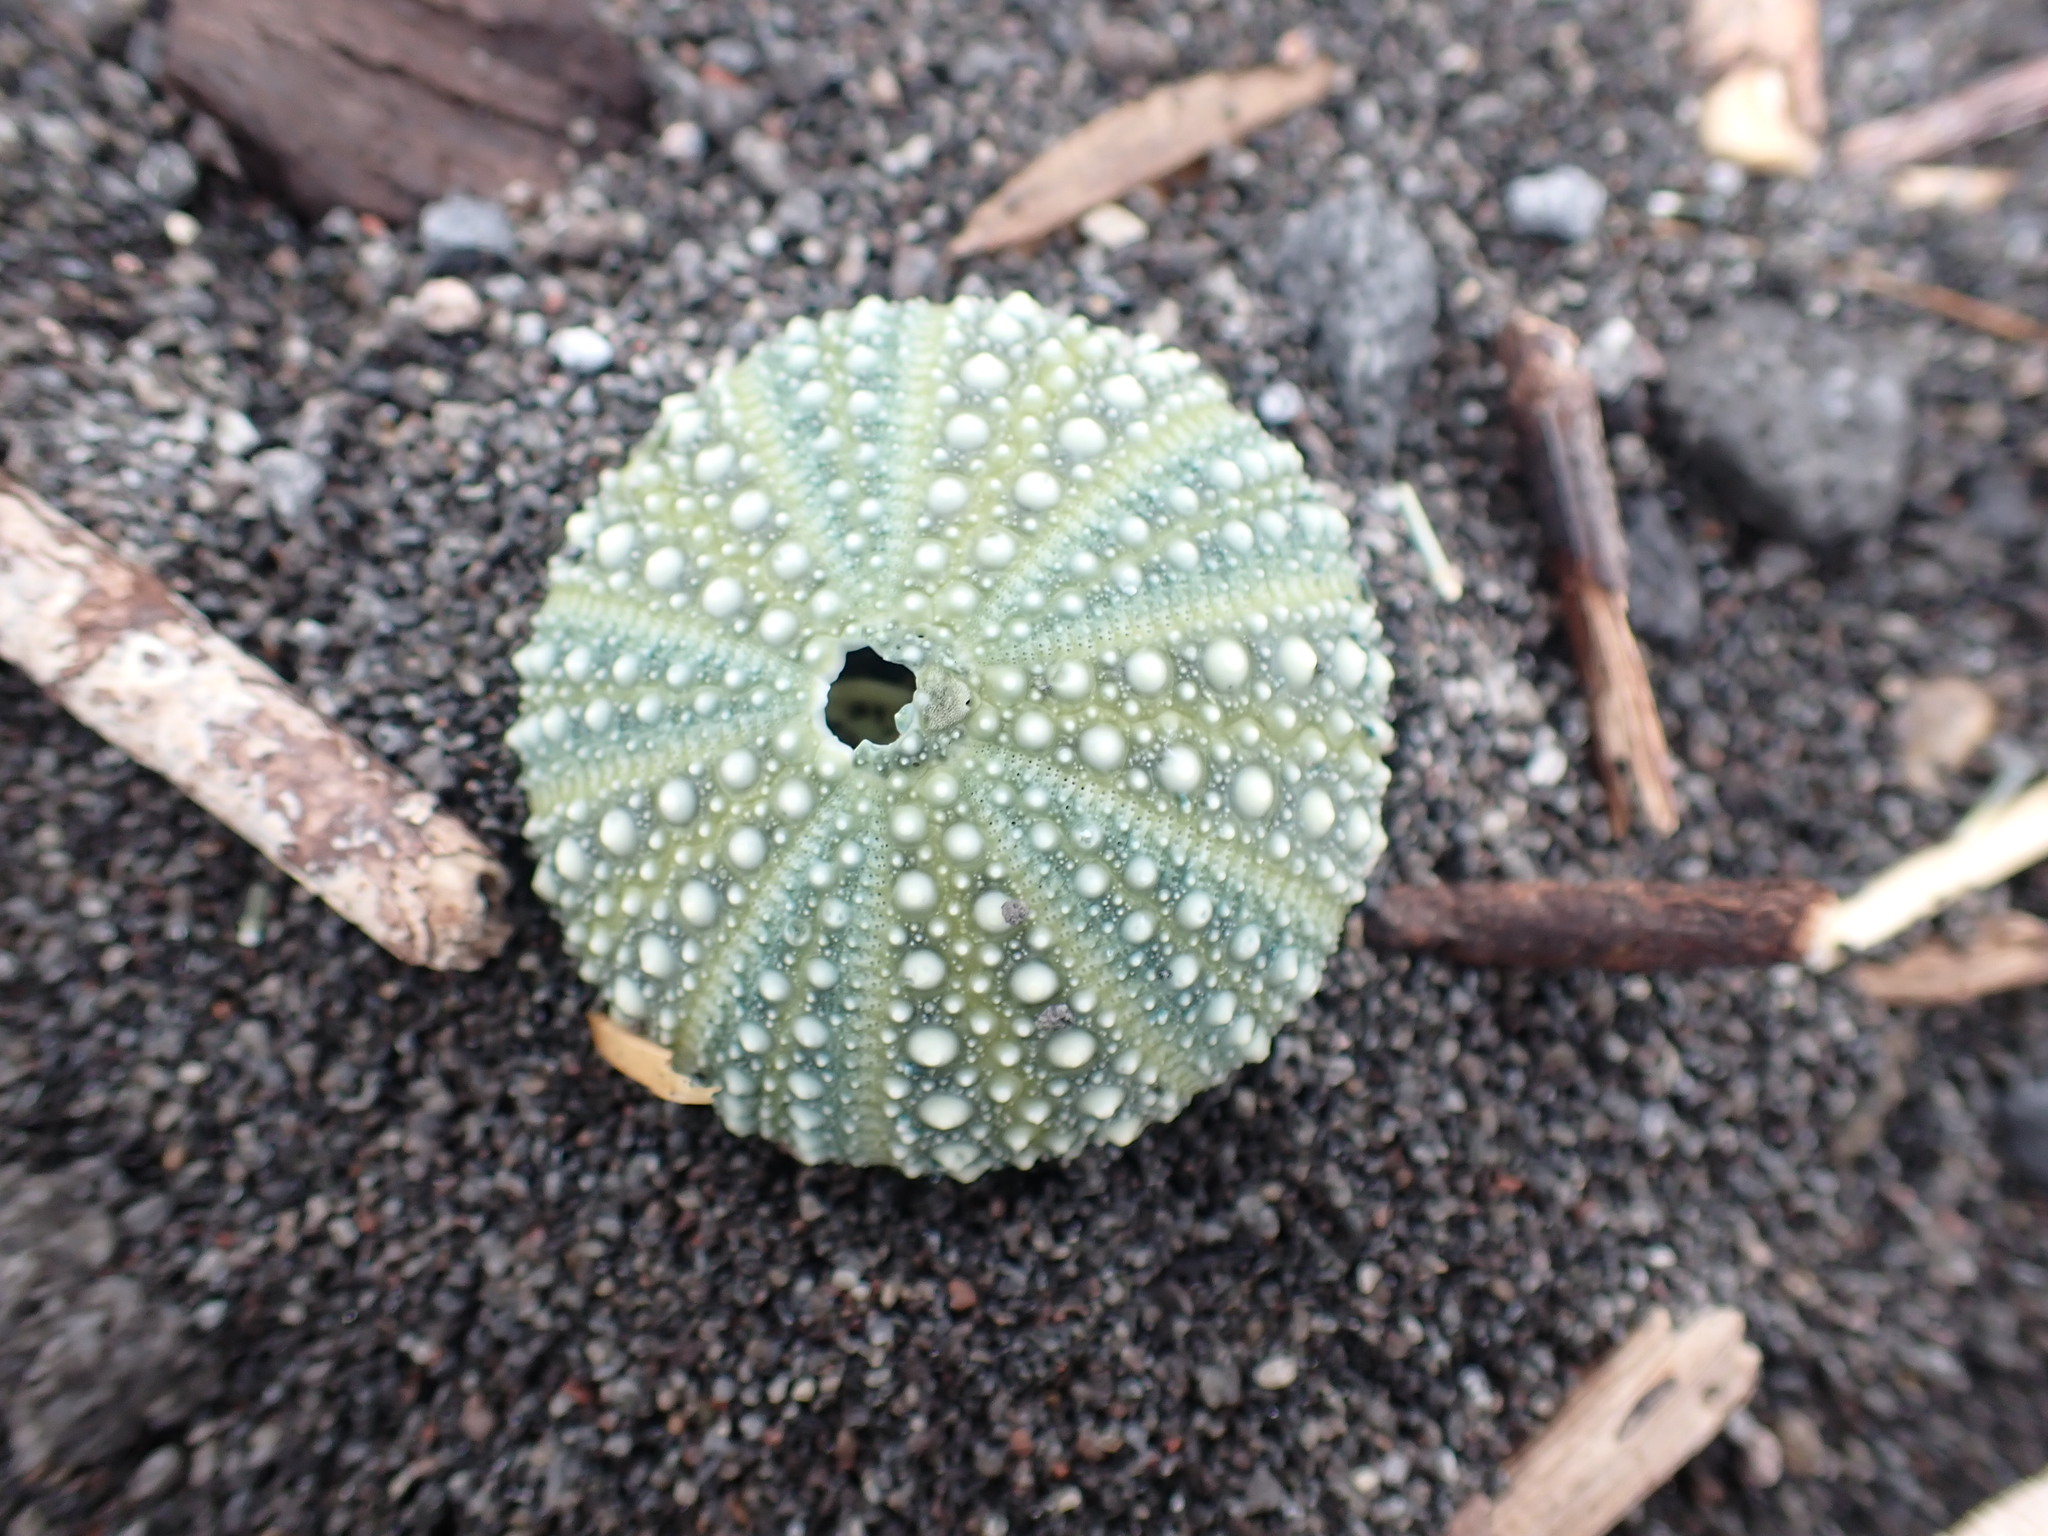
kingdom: Animalia
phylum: Echinodermata
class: Echinoidea
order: Camarodonta
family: Echinometridae
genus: Evechinus
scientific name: Evechinus chloroticus
